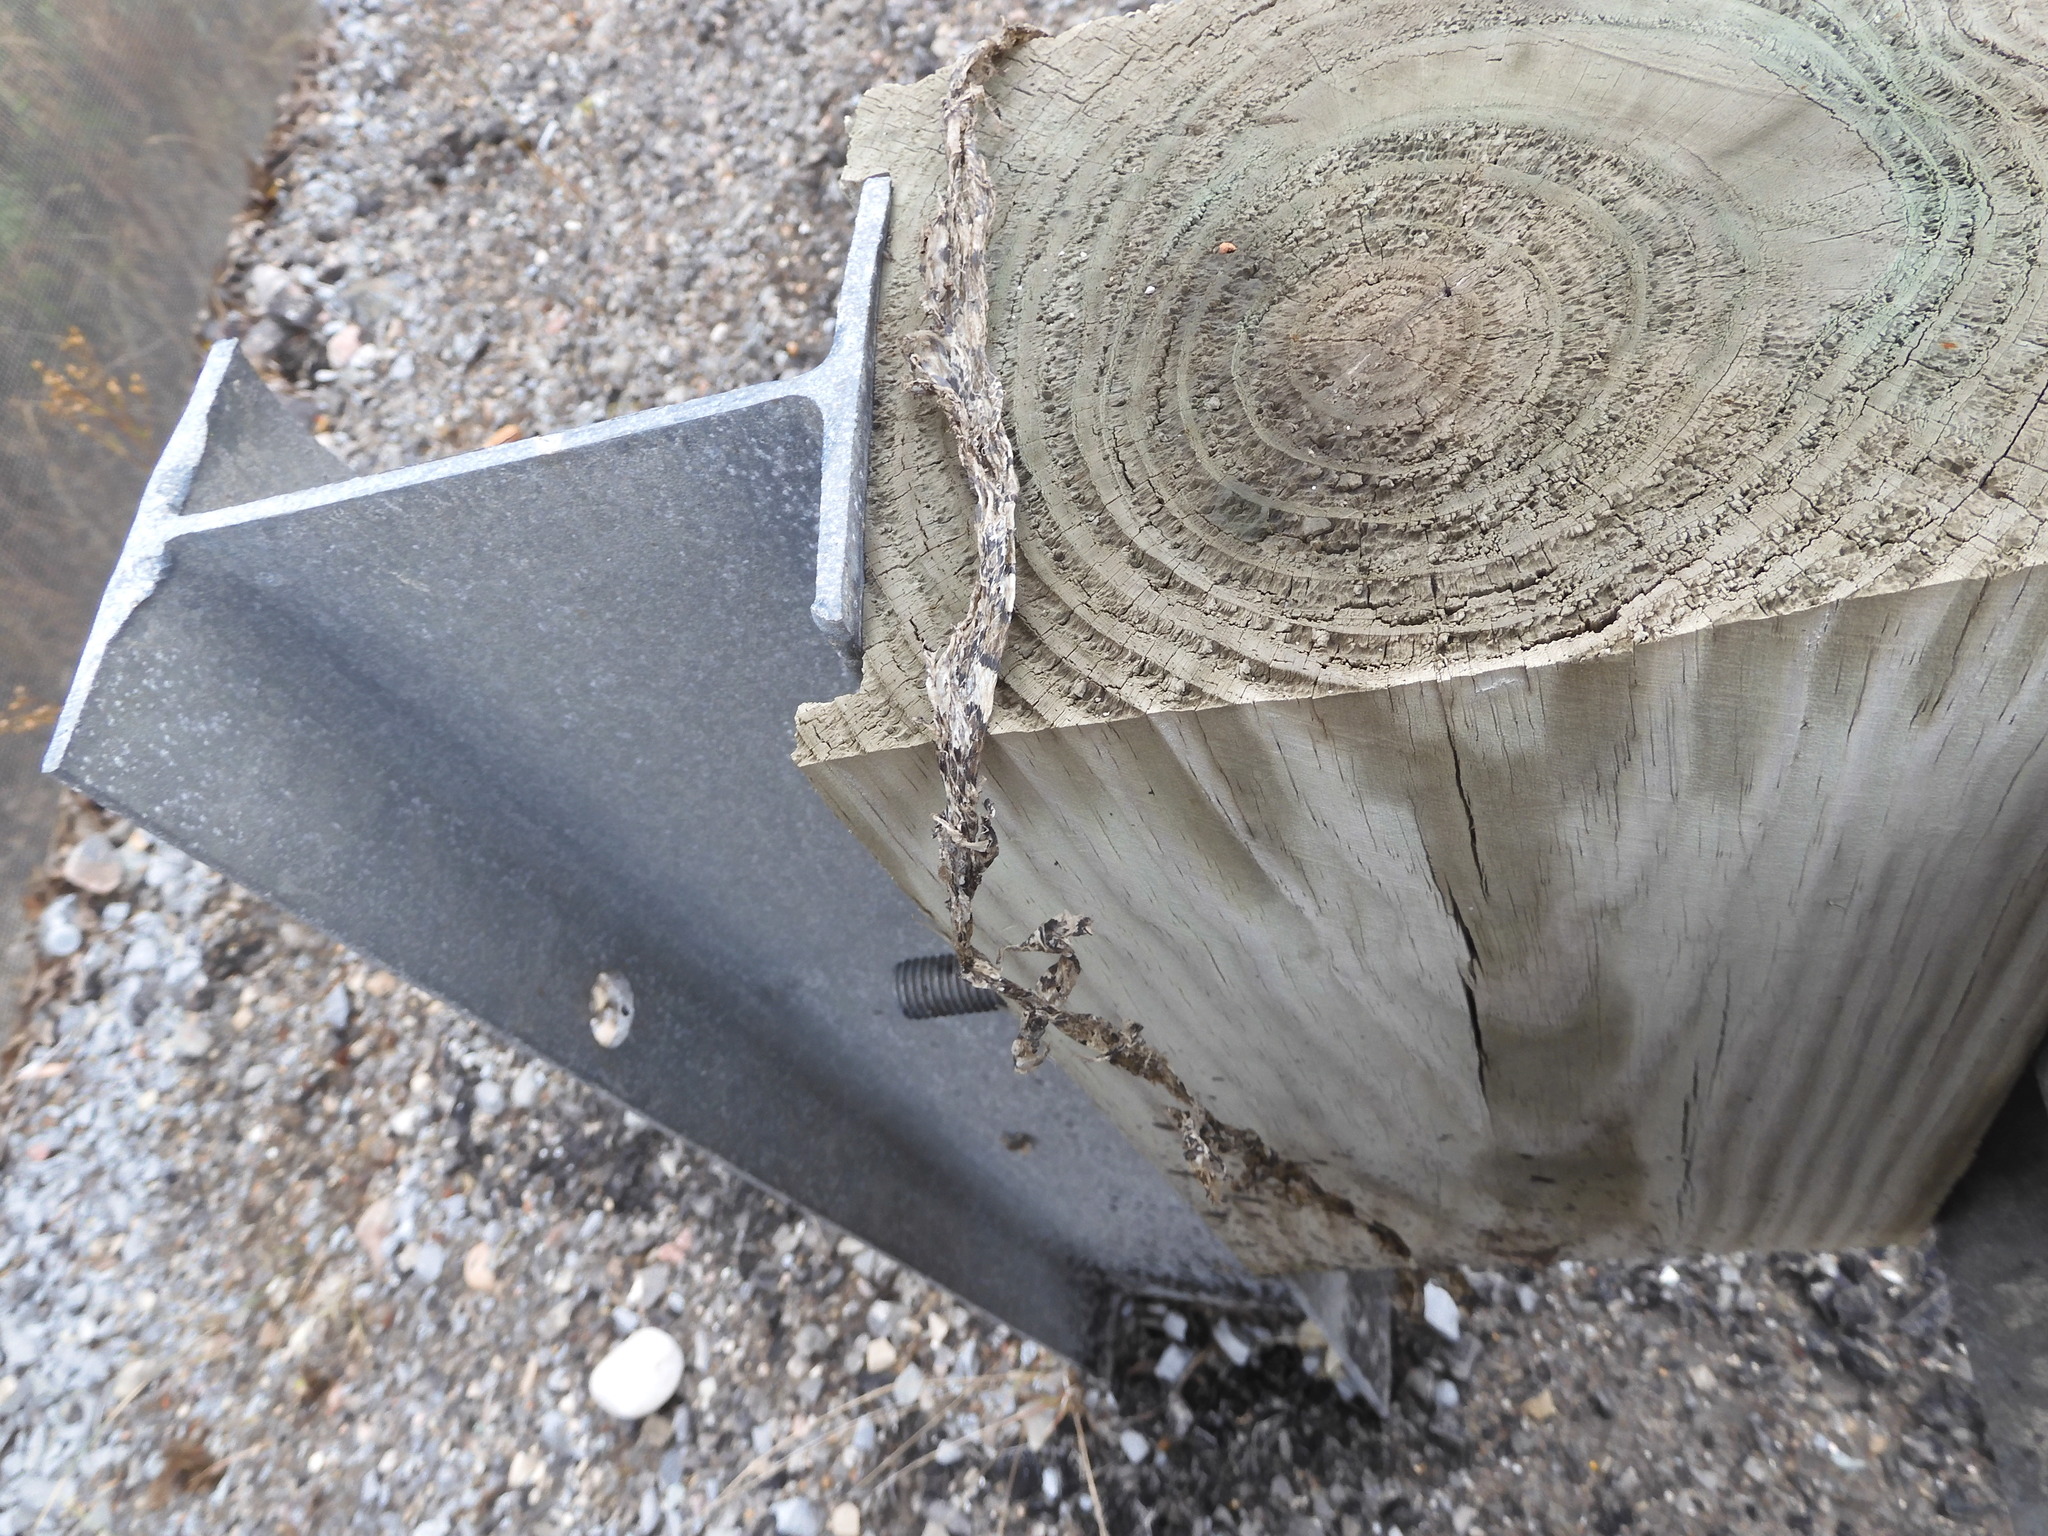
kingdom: Animalia
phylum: Chordata
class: Squamata
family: Colubridae
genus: Lampropeltis
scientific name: Lampropeltis triangulum
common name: Eastern milksnake
